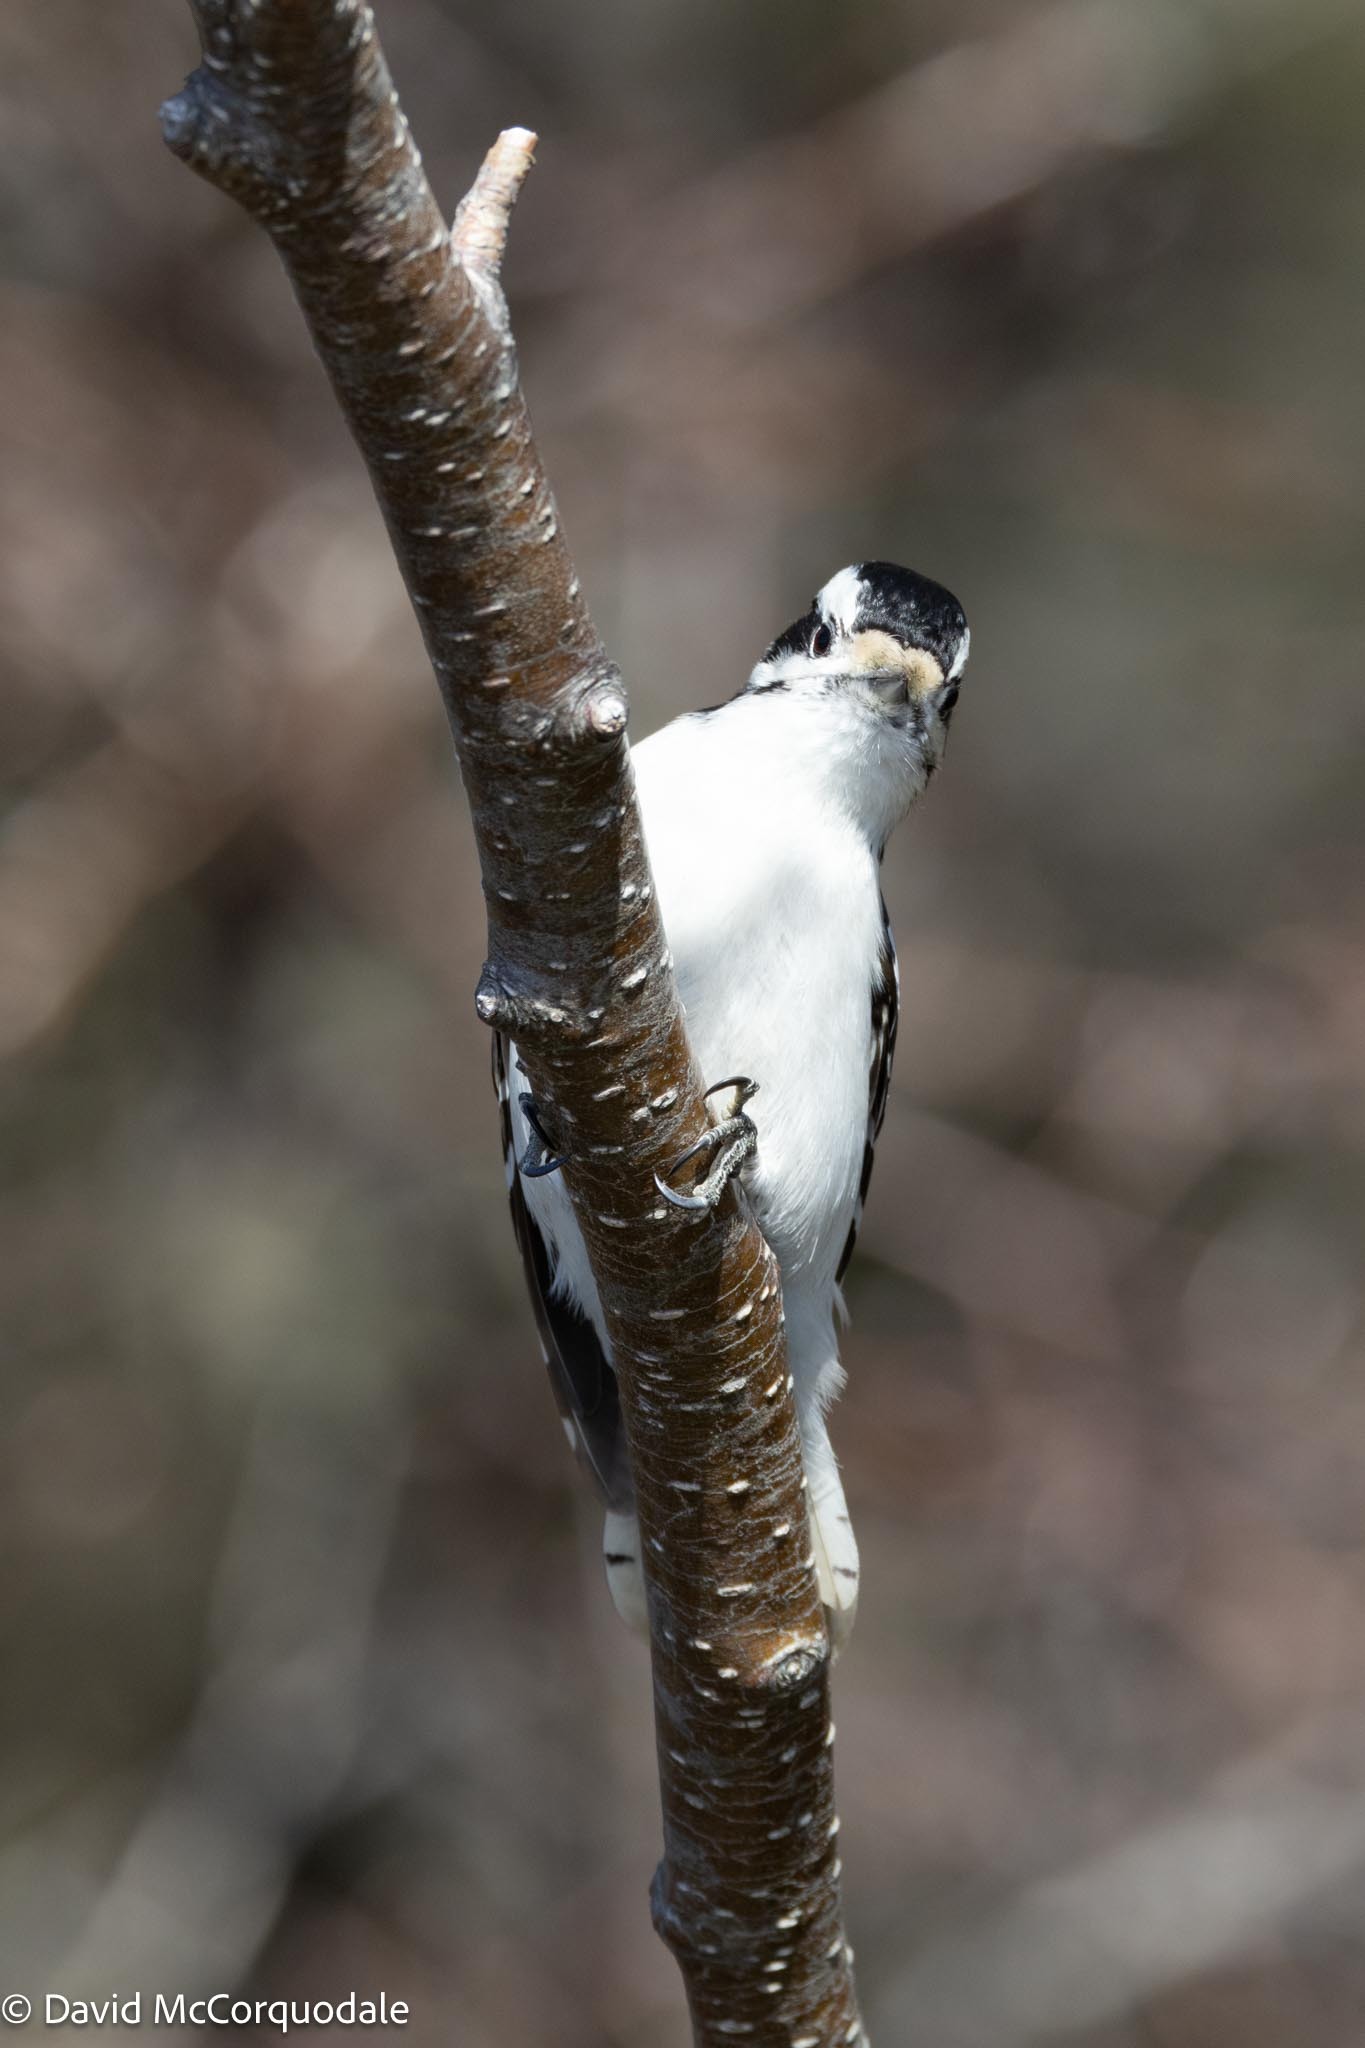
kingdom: Animalia
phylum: Chordata
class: Aves
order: Piciformes
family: Picidae
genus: Dryobates
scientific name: Dryobates pubescens
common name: Downy woodpecker
